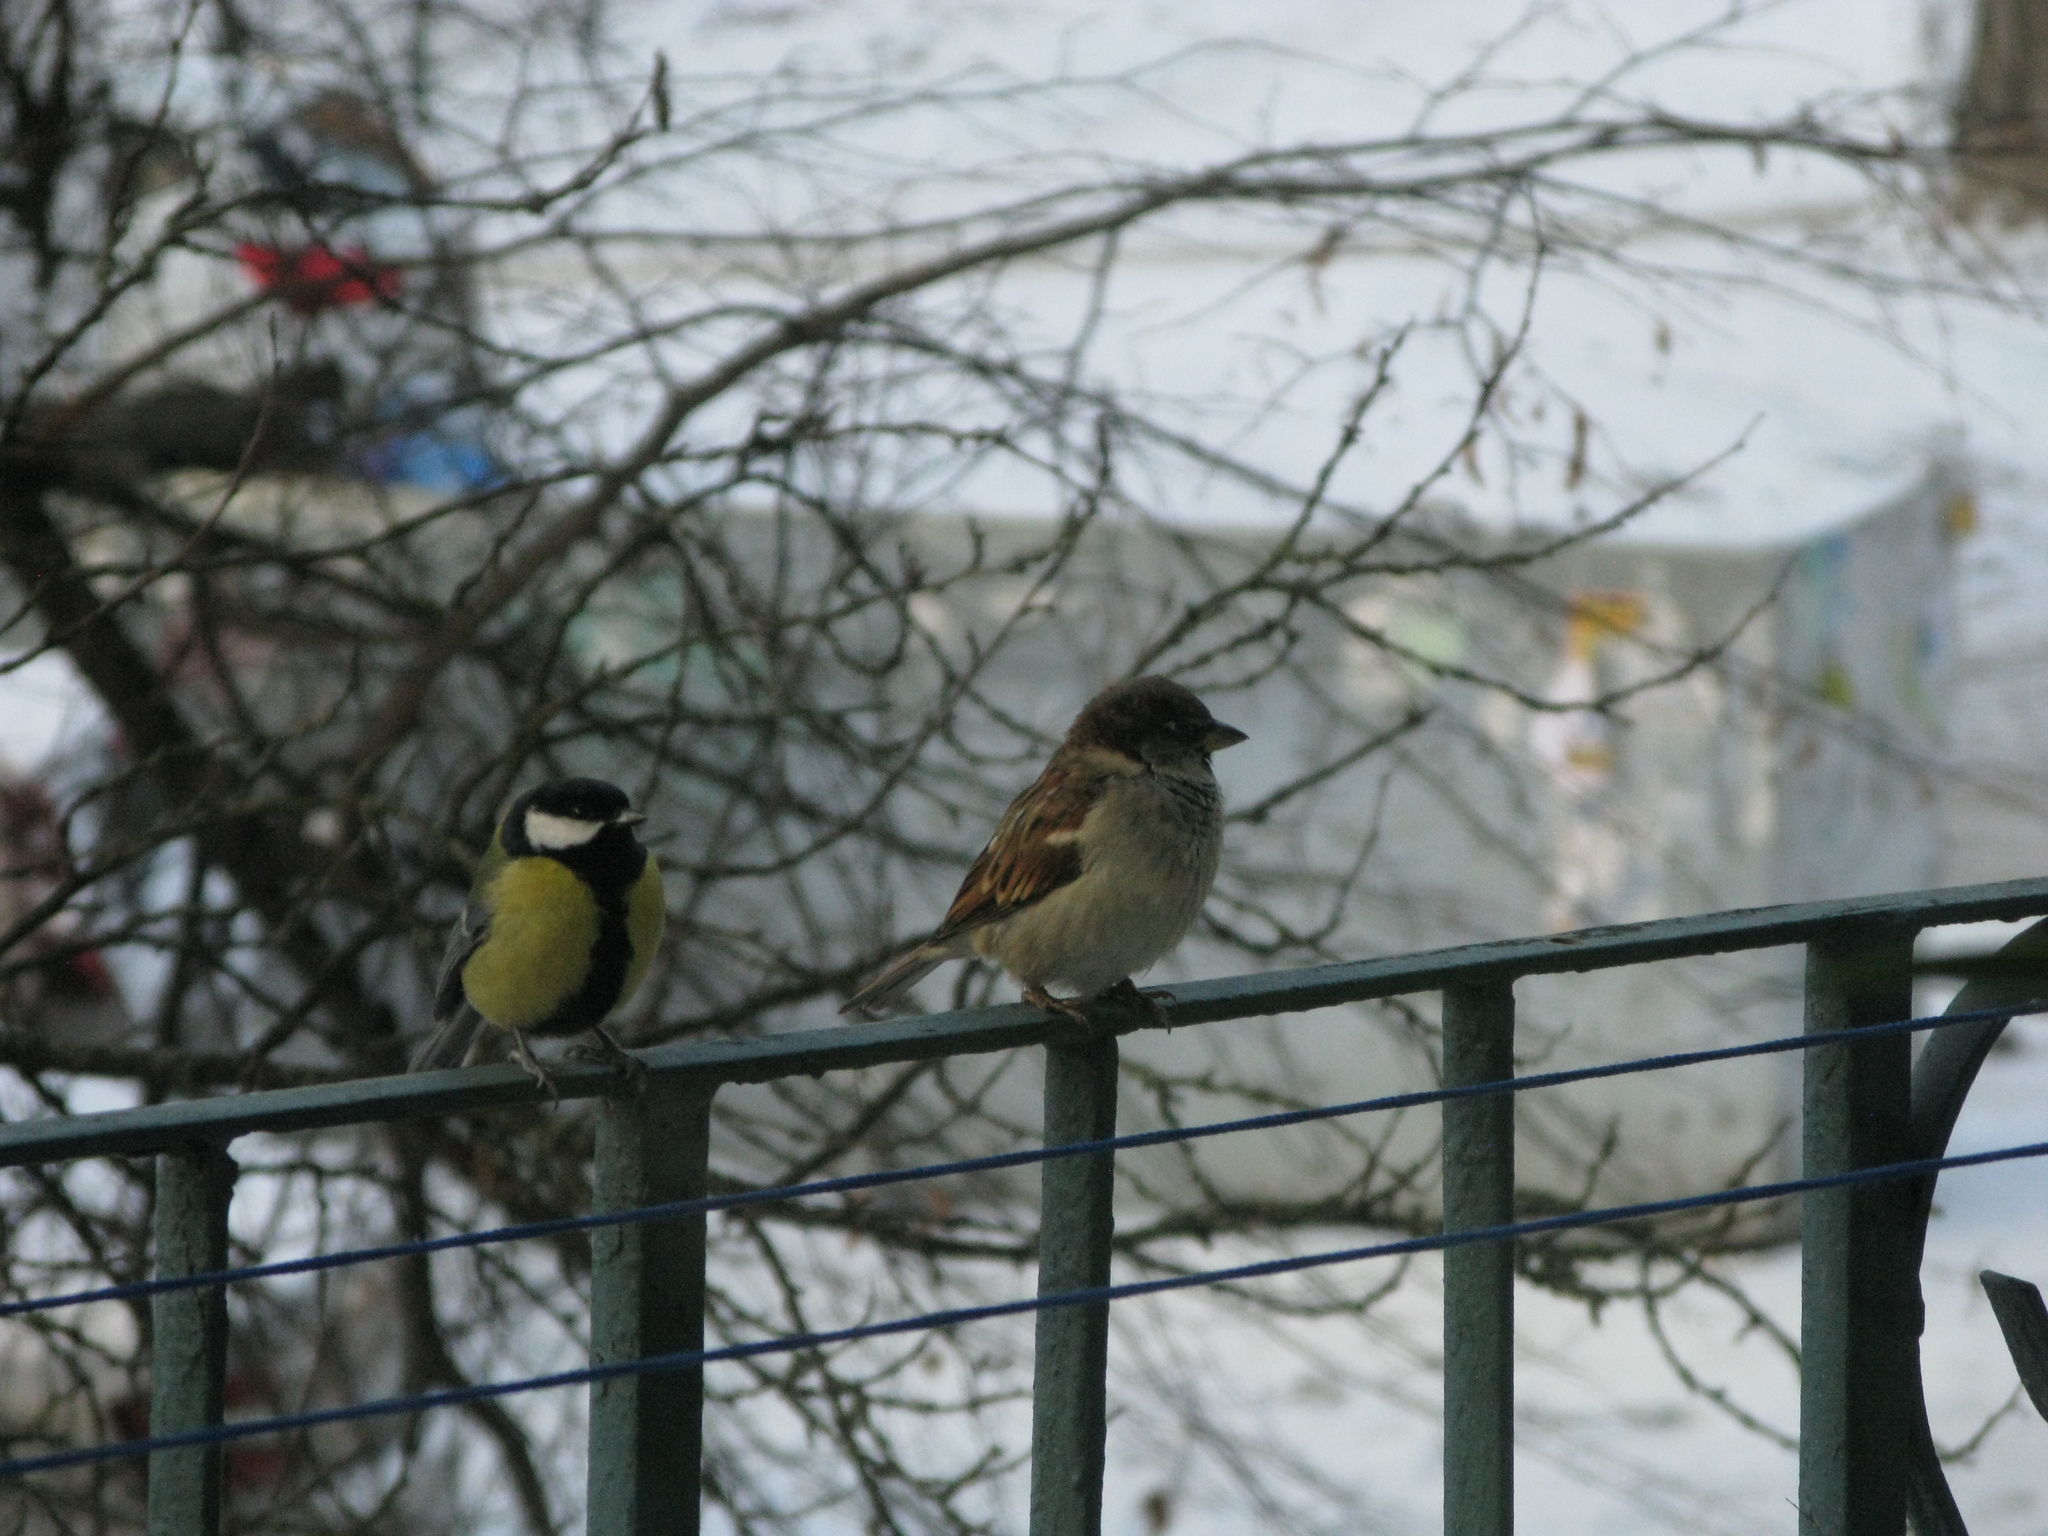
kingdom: Animalia
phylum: Chordata
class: Aves
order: Passeriformes
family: Passeridae
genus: Passer
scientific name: Passer domesticus
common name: House sparrow
